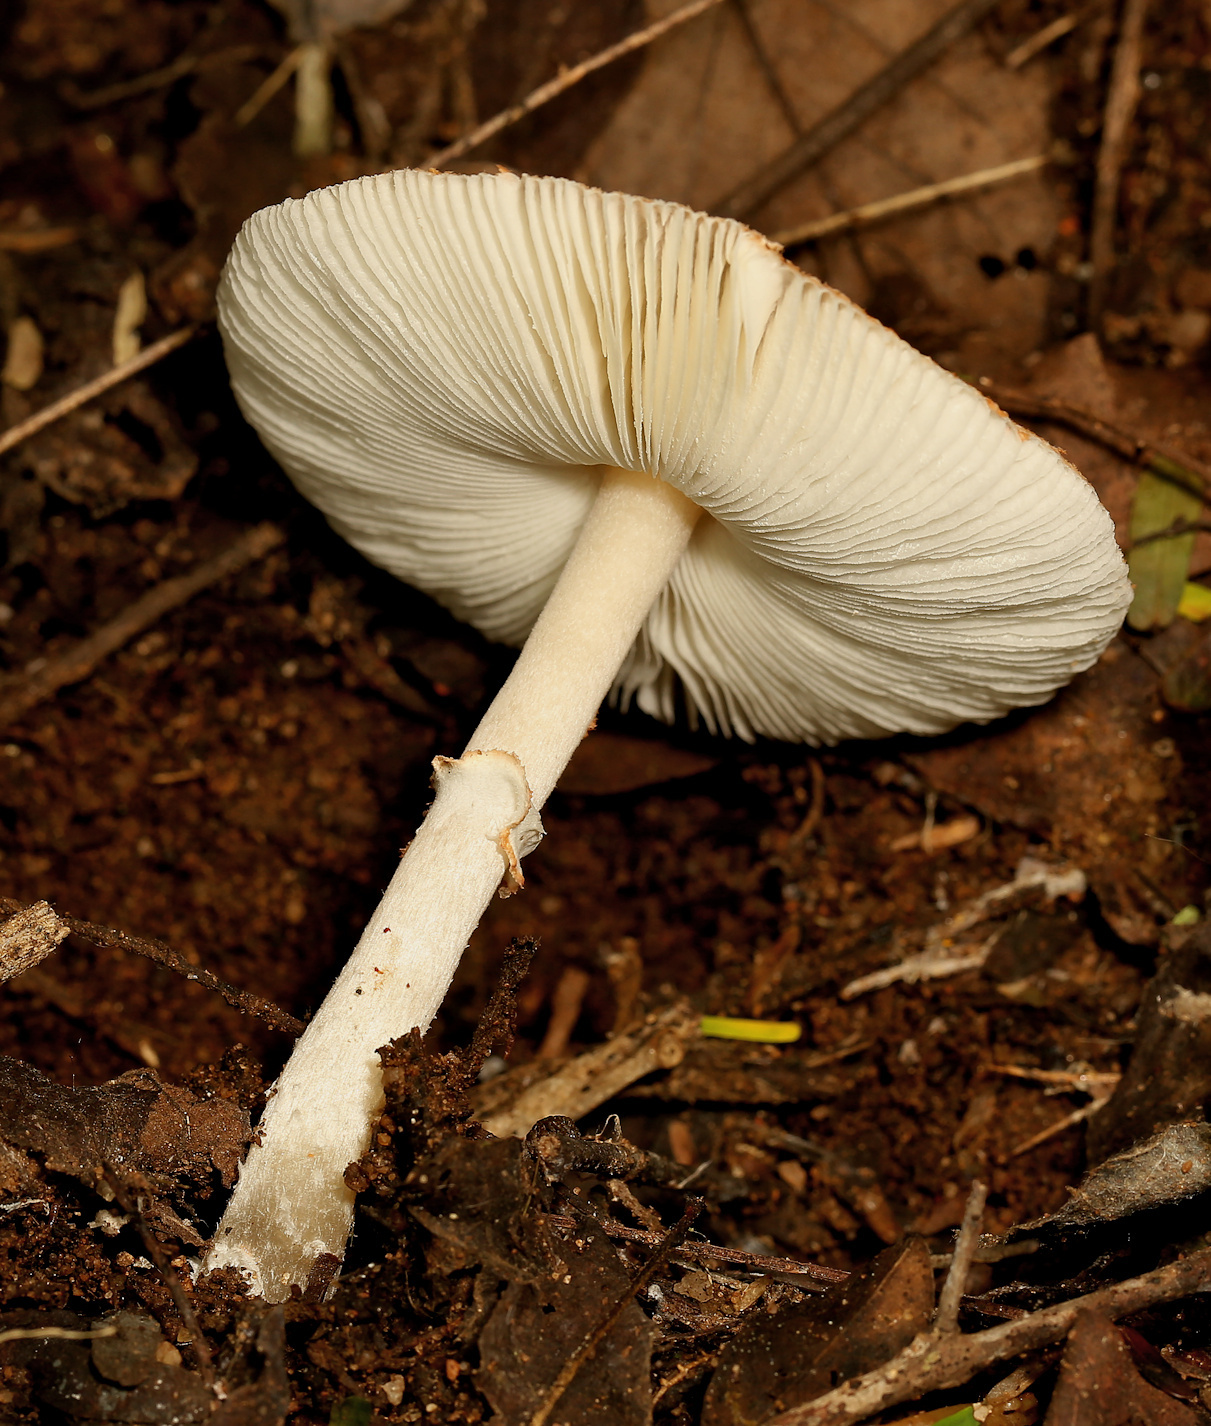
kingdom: Fungi
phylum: Basidiomycota
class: Agaricomycetes
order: Agaricales
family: Agaricaceae
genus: Leucoagaricus
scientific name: Leucoagaricus rubrotinctus
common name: Ruby dapperling
